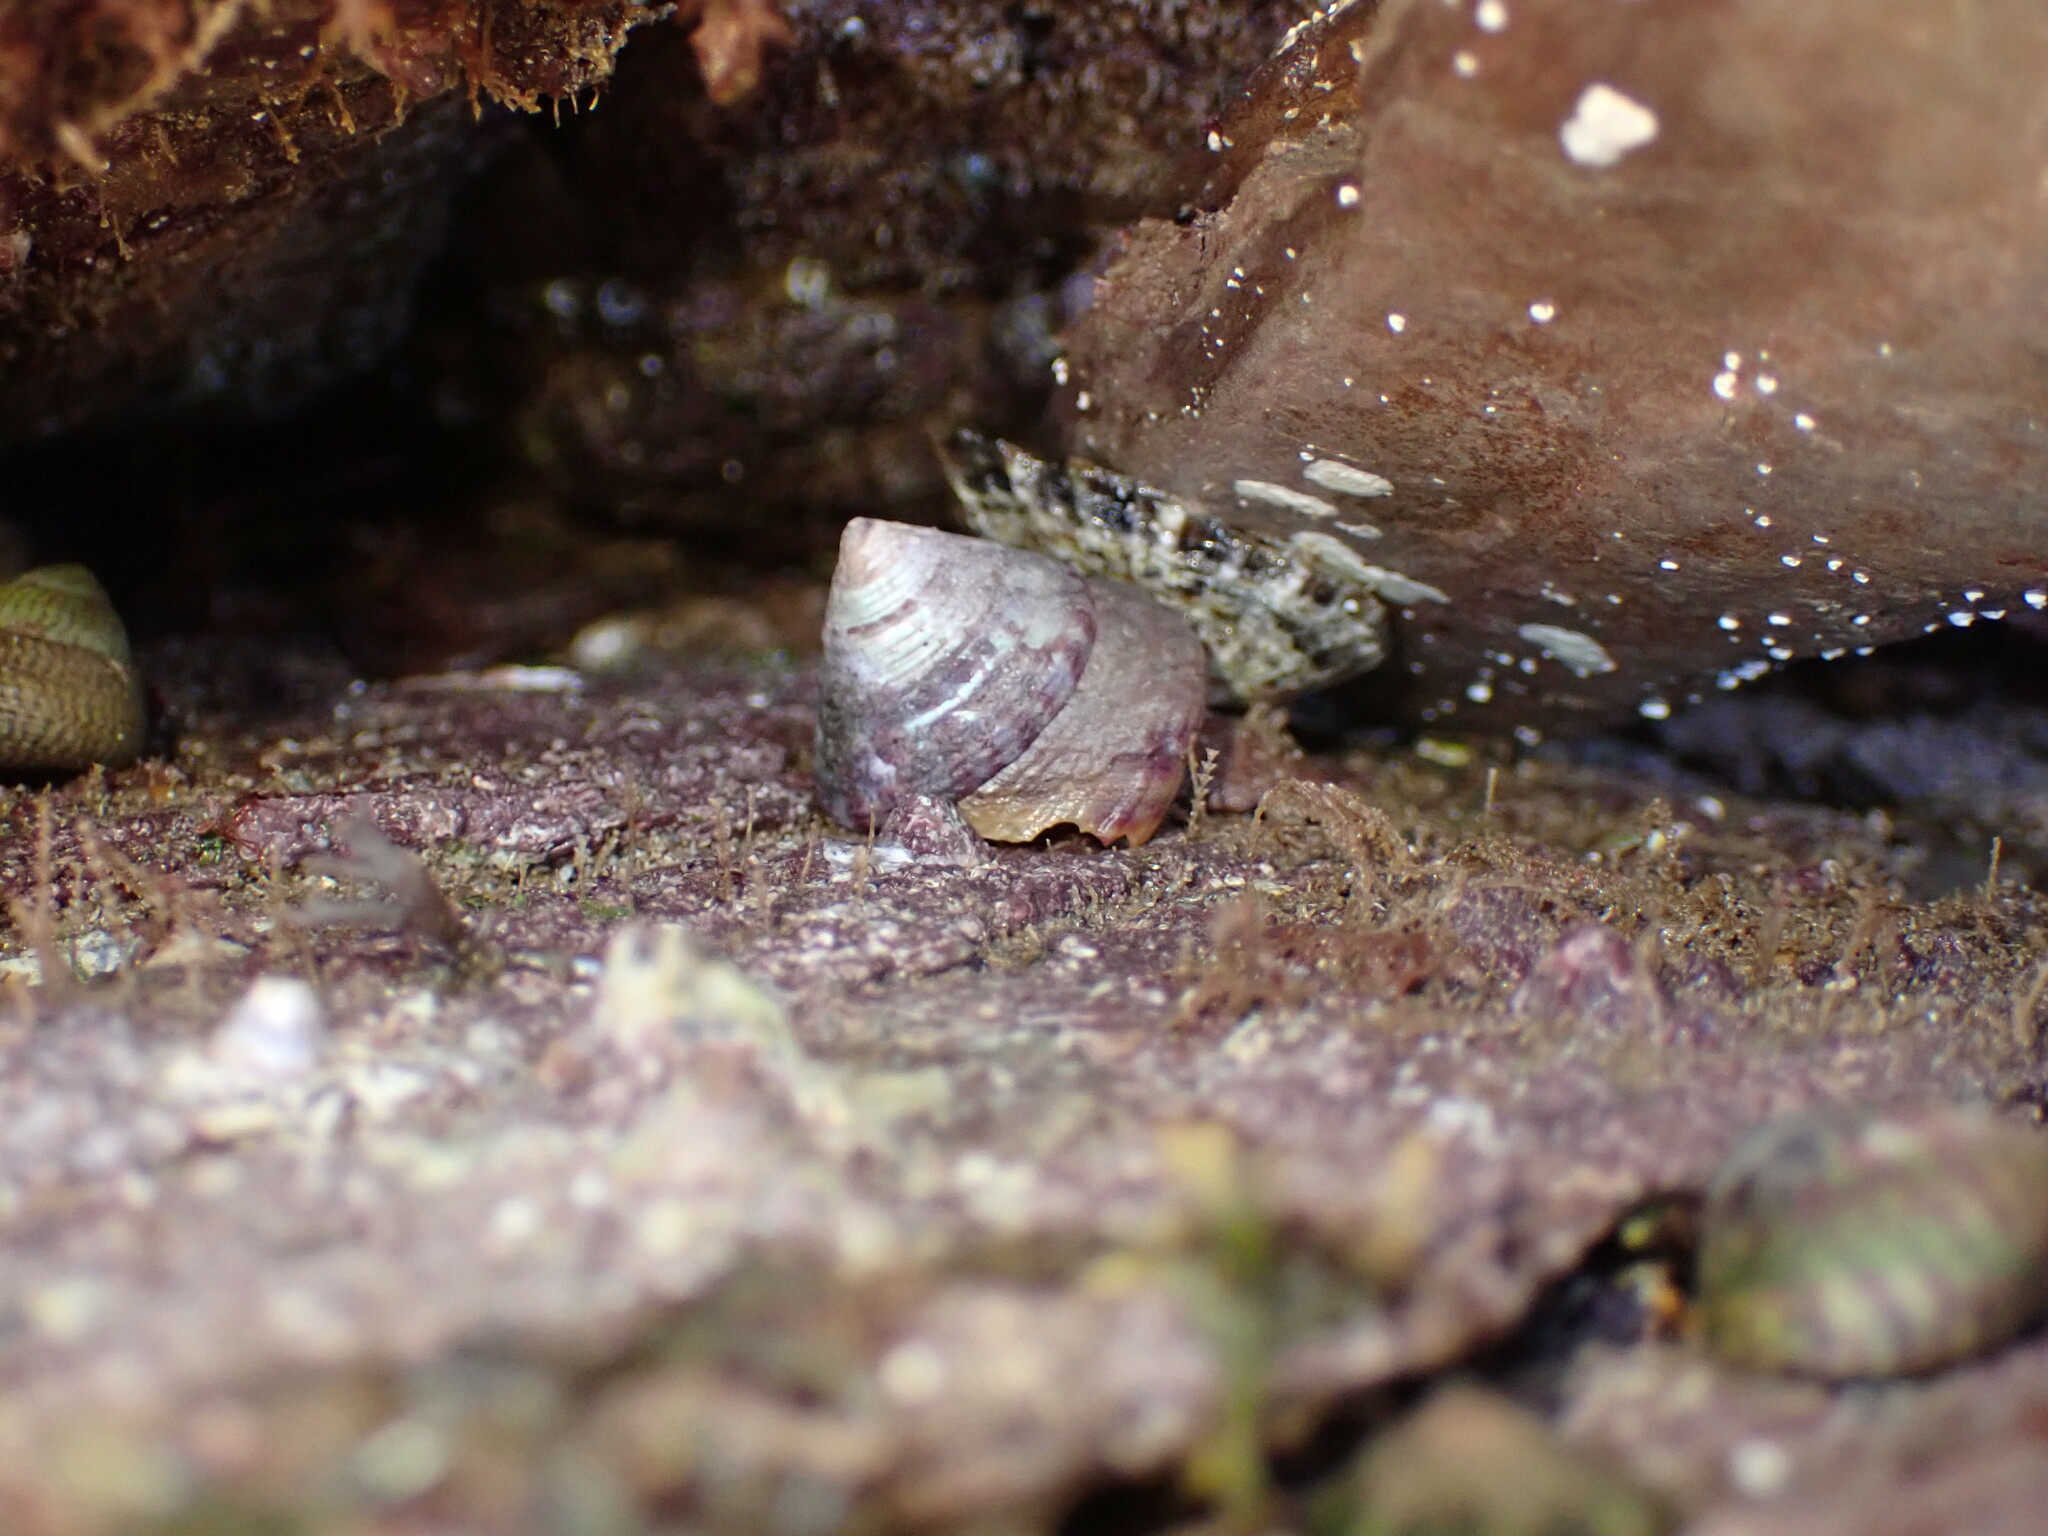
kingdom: Animalia
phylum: Mollusca
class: Gastropoda
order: Trochida
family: Calliostomatidae
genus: Calliostoma
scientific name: Calliostoma zizyphinum
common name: Painted top shell
